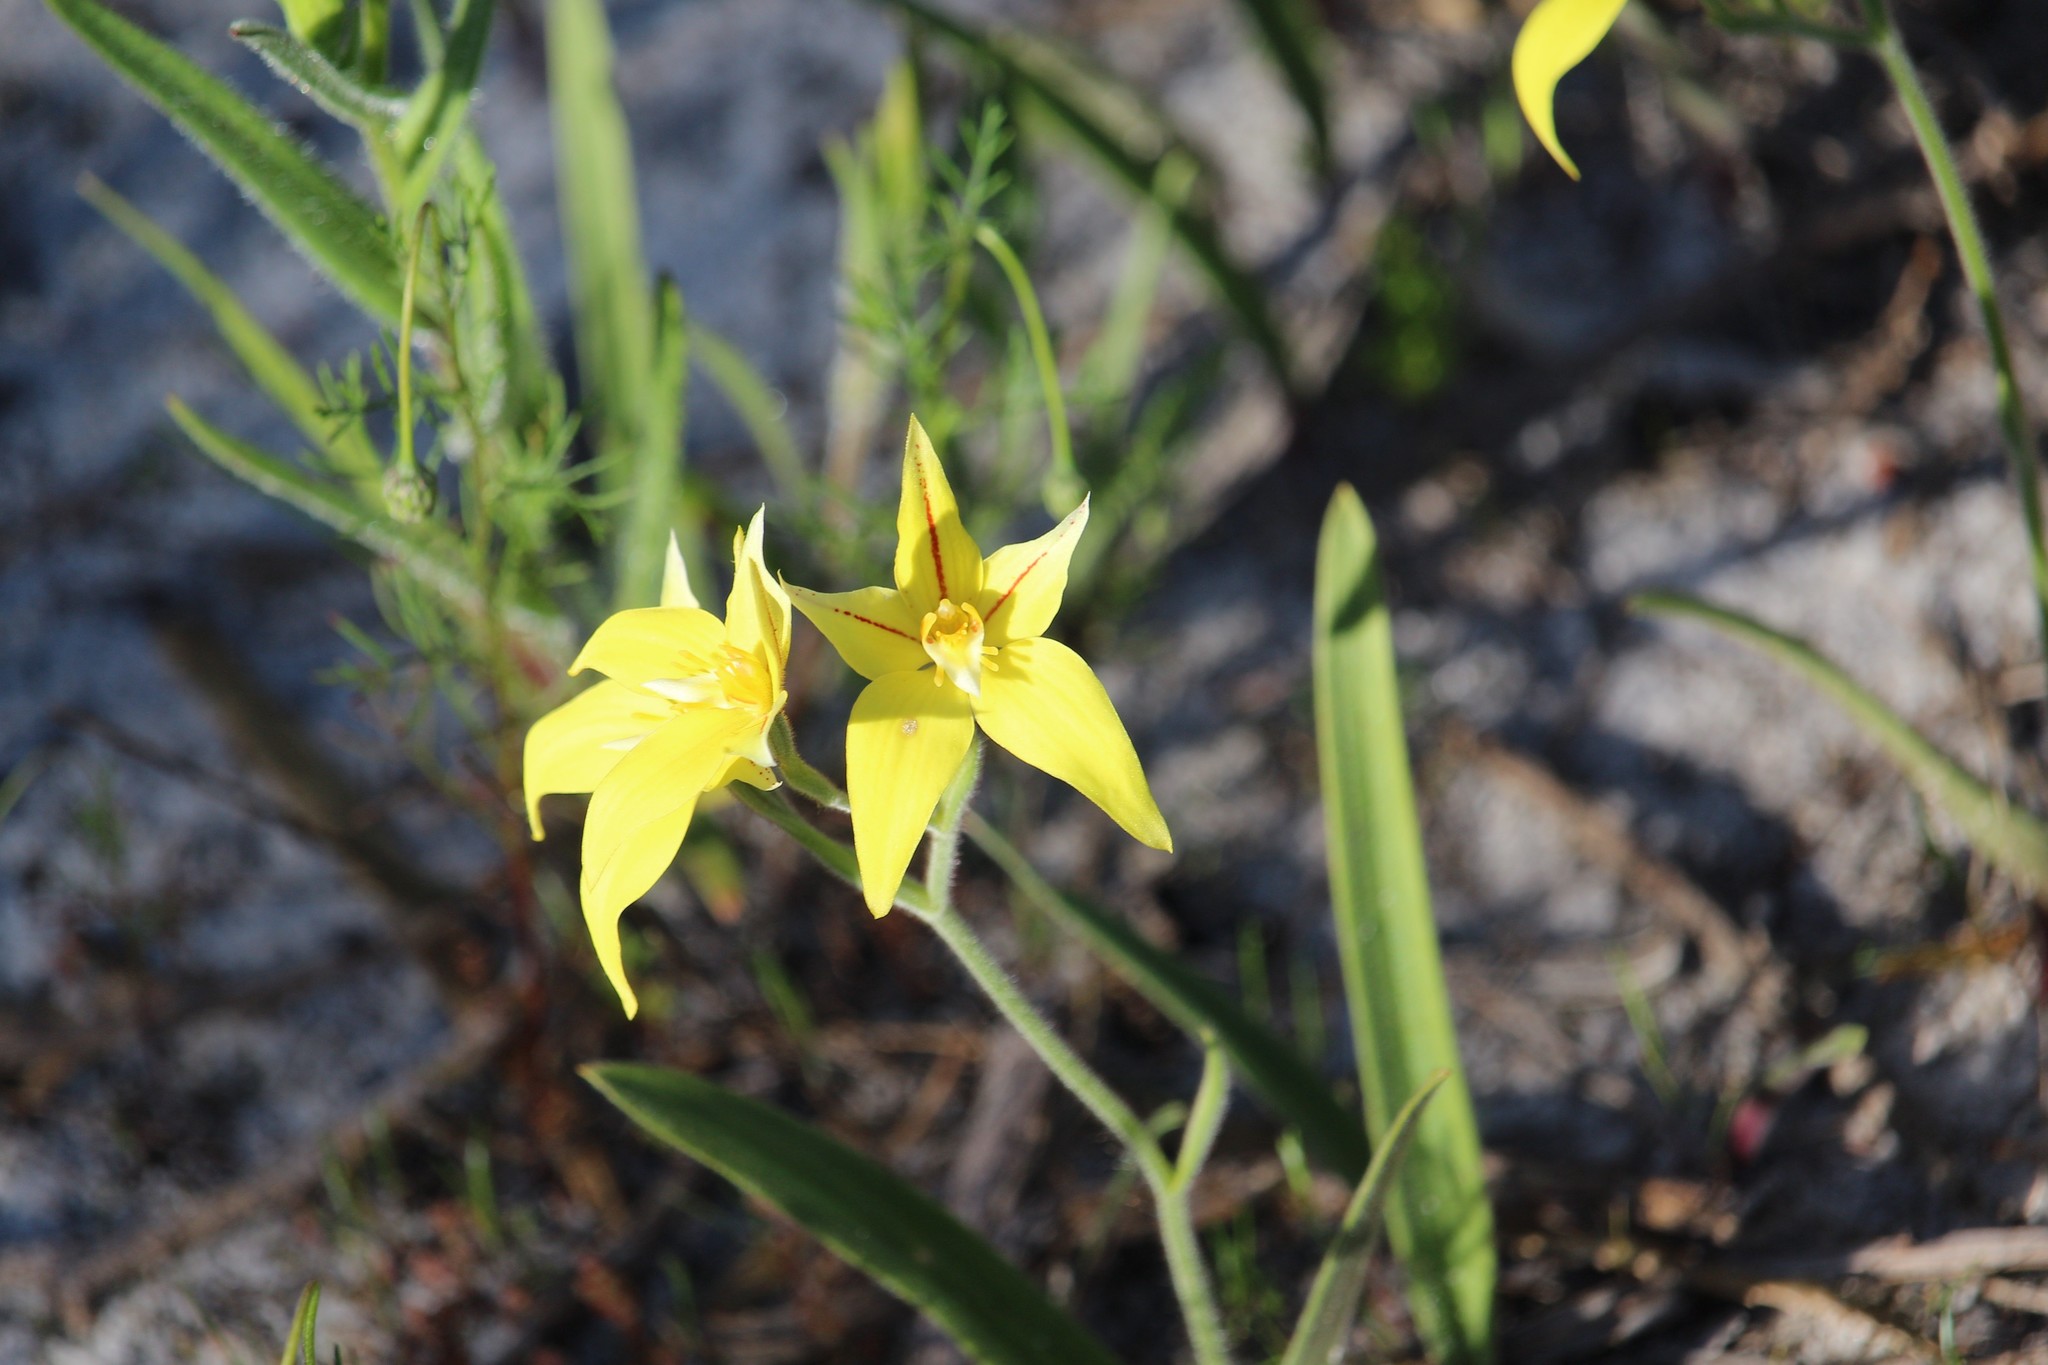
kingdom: Plantae
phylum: Tracheophyta
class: Liliopsida
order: Asparagales
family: Orchidaceae
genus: Caladenia
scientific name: Caladenia flava
